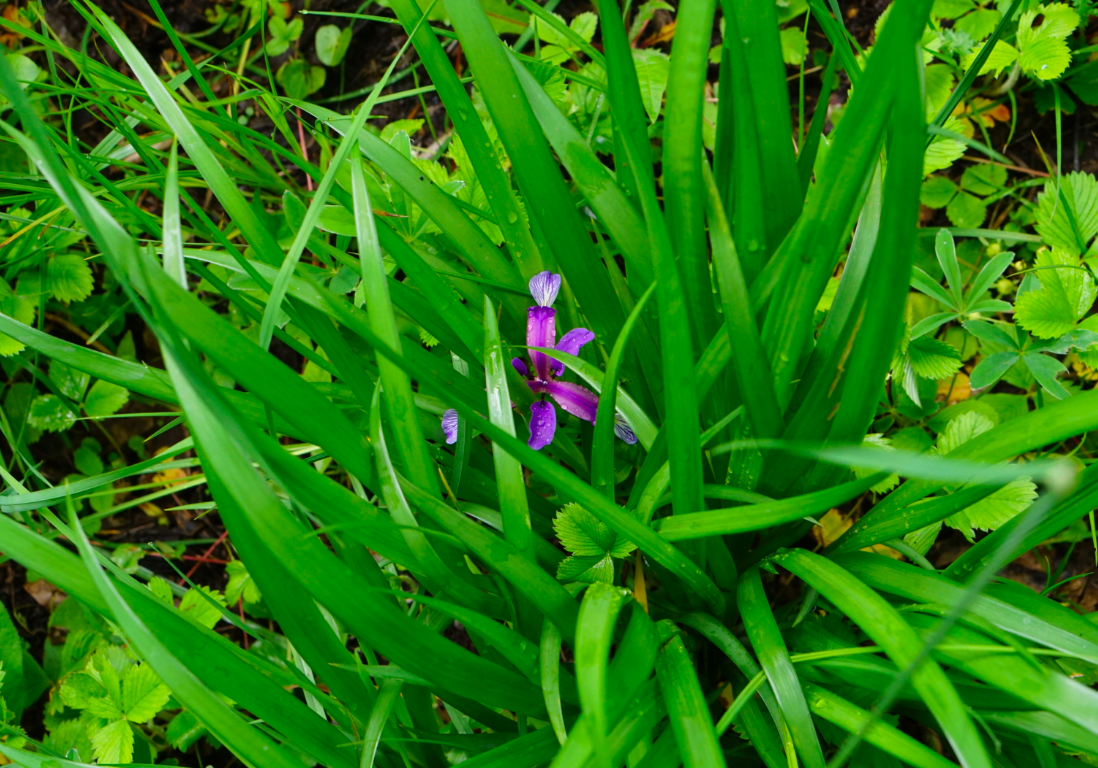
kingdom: Plantae
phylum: Tracheophyta
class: Liliopsida
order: Asparagales
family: Iridaceae
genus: Iris
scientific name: Iris graminea
